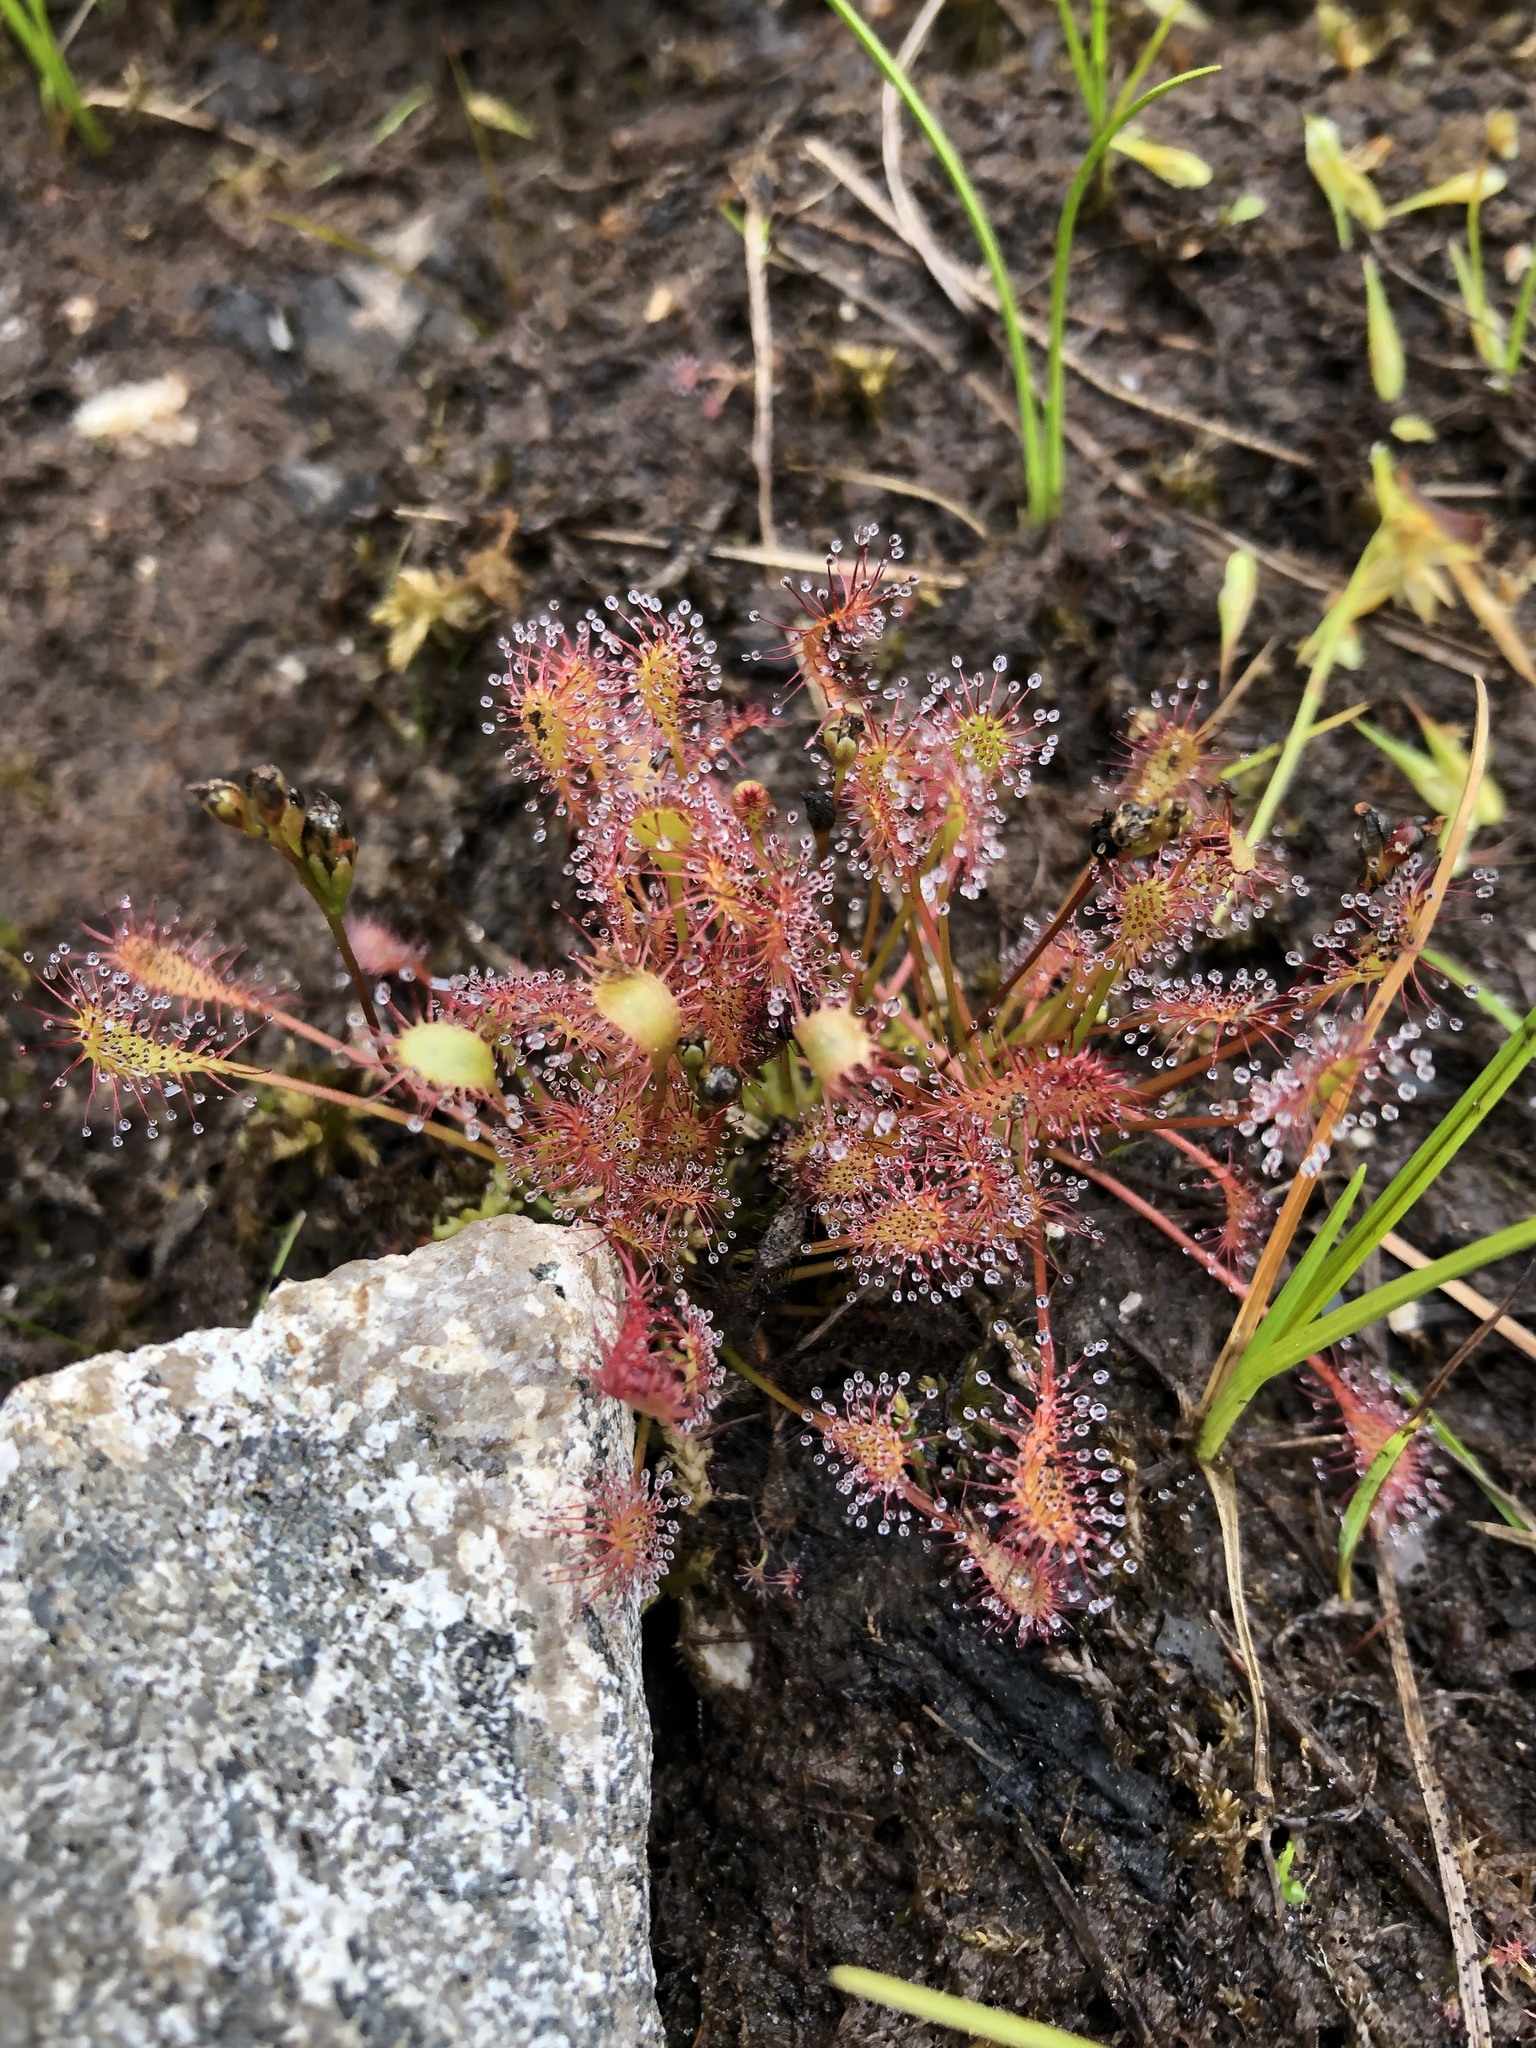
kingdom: Plantae
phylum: Tracheophyta
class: Magnoliopsida
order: Caryophyllales
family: Droseraceae
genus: Drosera
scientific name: Drosera intermedia
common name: Oblong-leaved sundew
